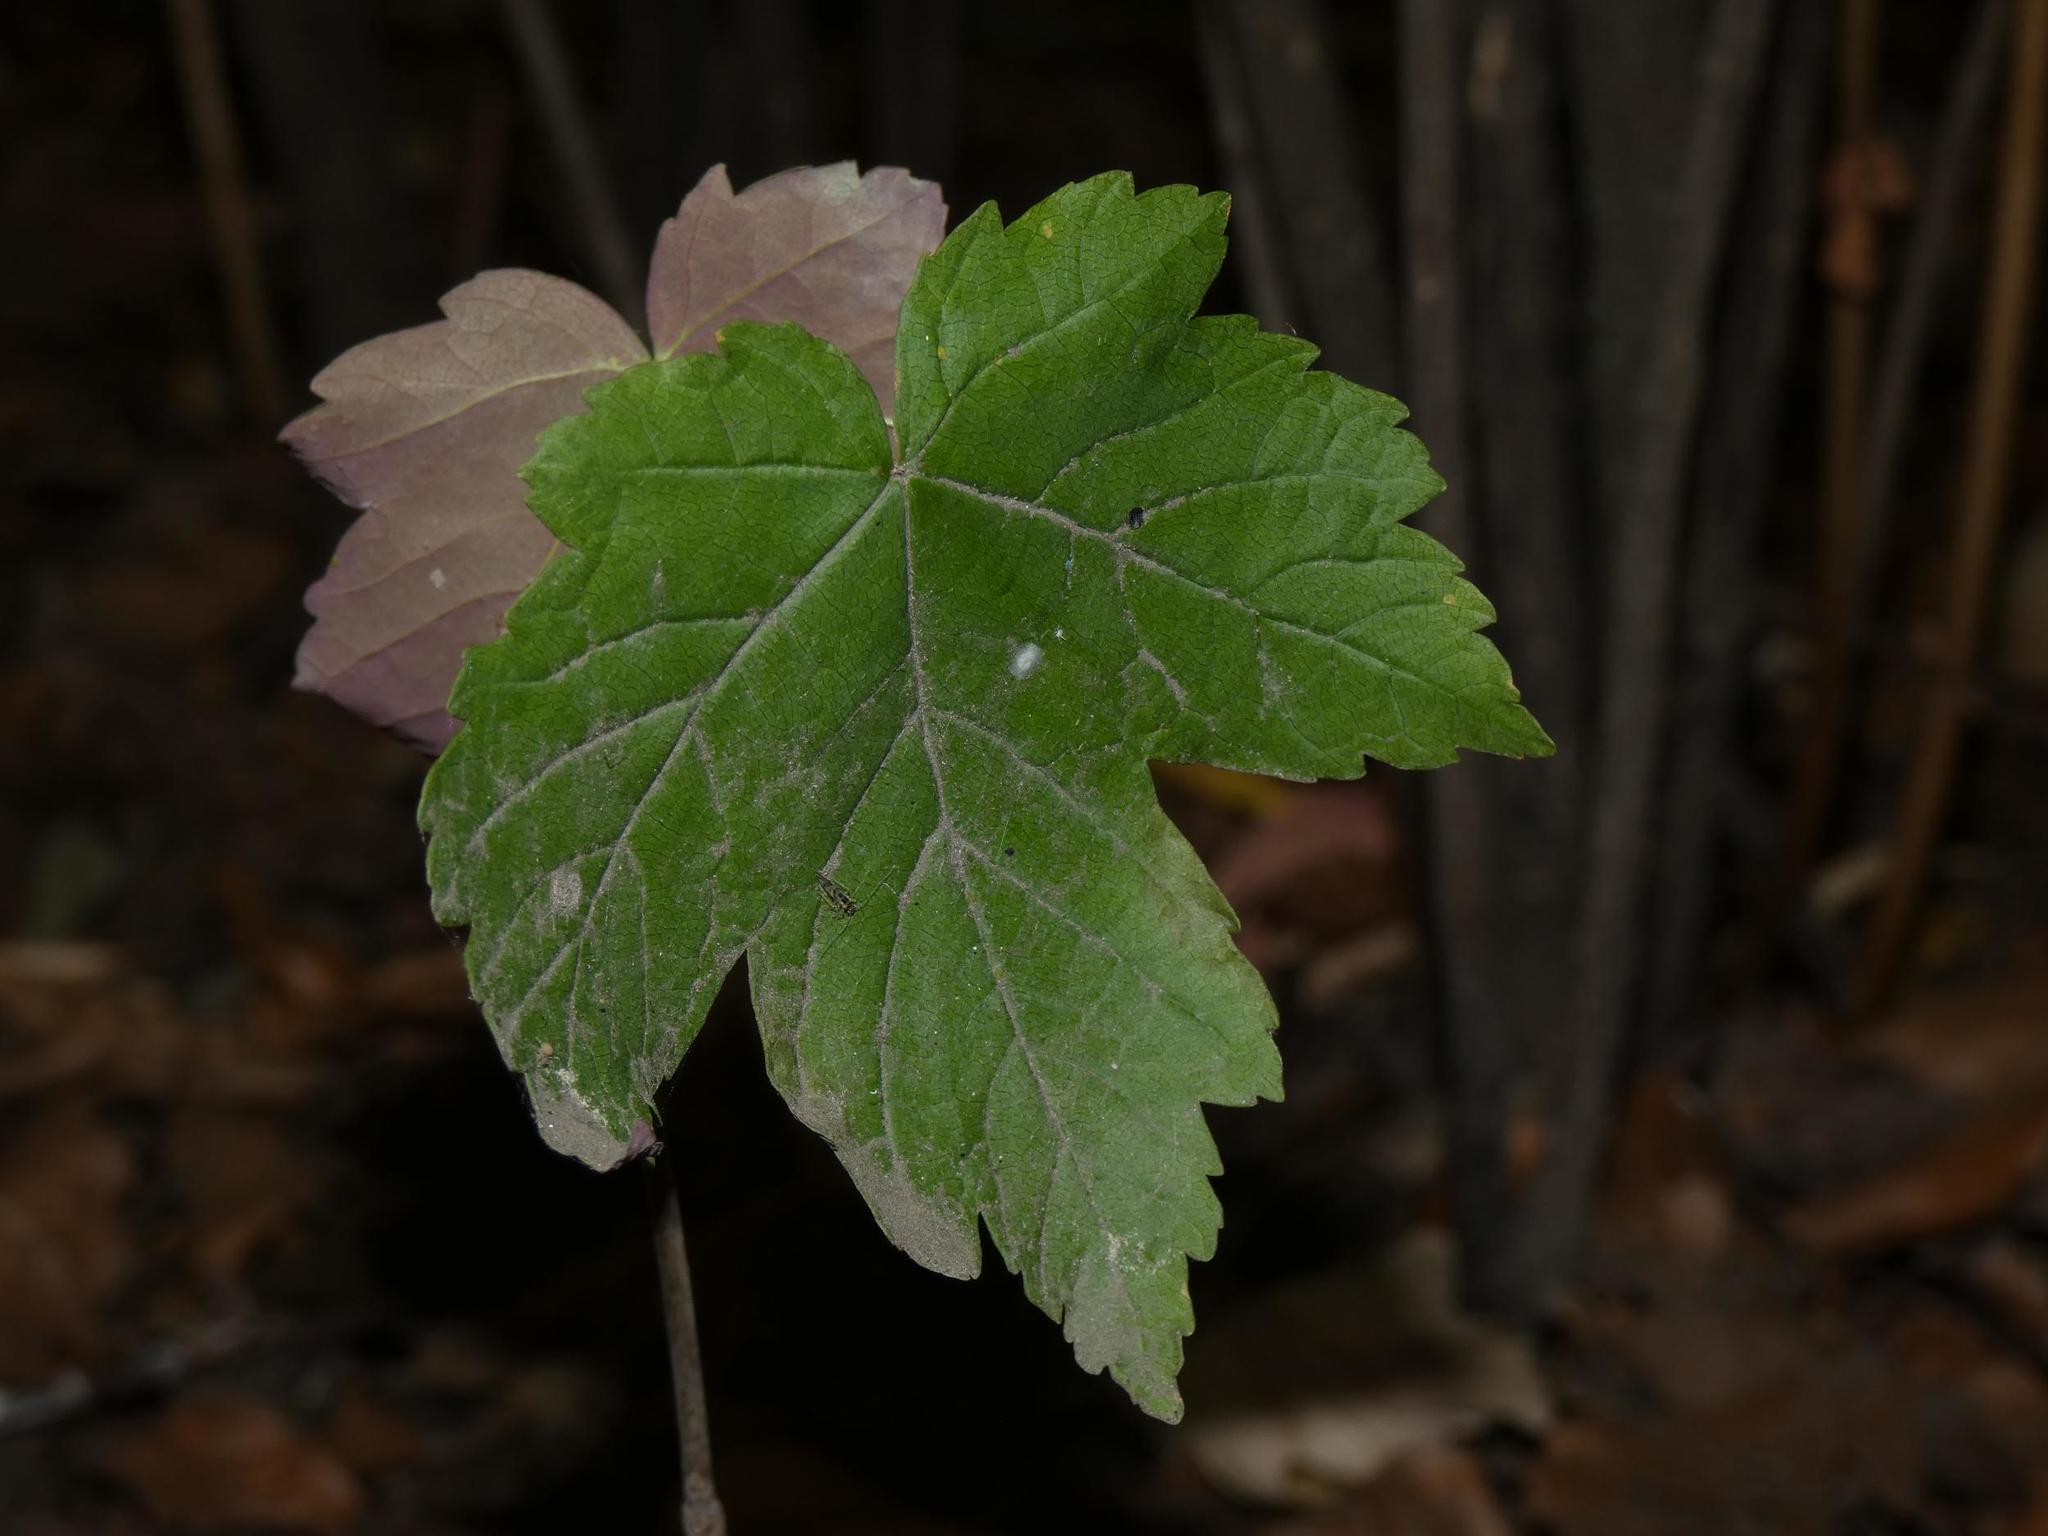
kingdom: Plantae
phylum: Tracheophyta
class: Magnoliopsida
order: Sapindales
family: Sapindaceae
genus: Acer
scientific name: Acer pseudoplatanus
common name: Sycamore
